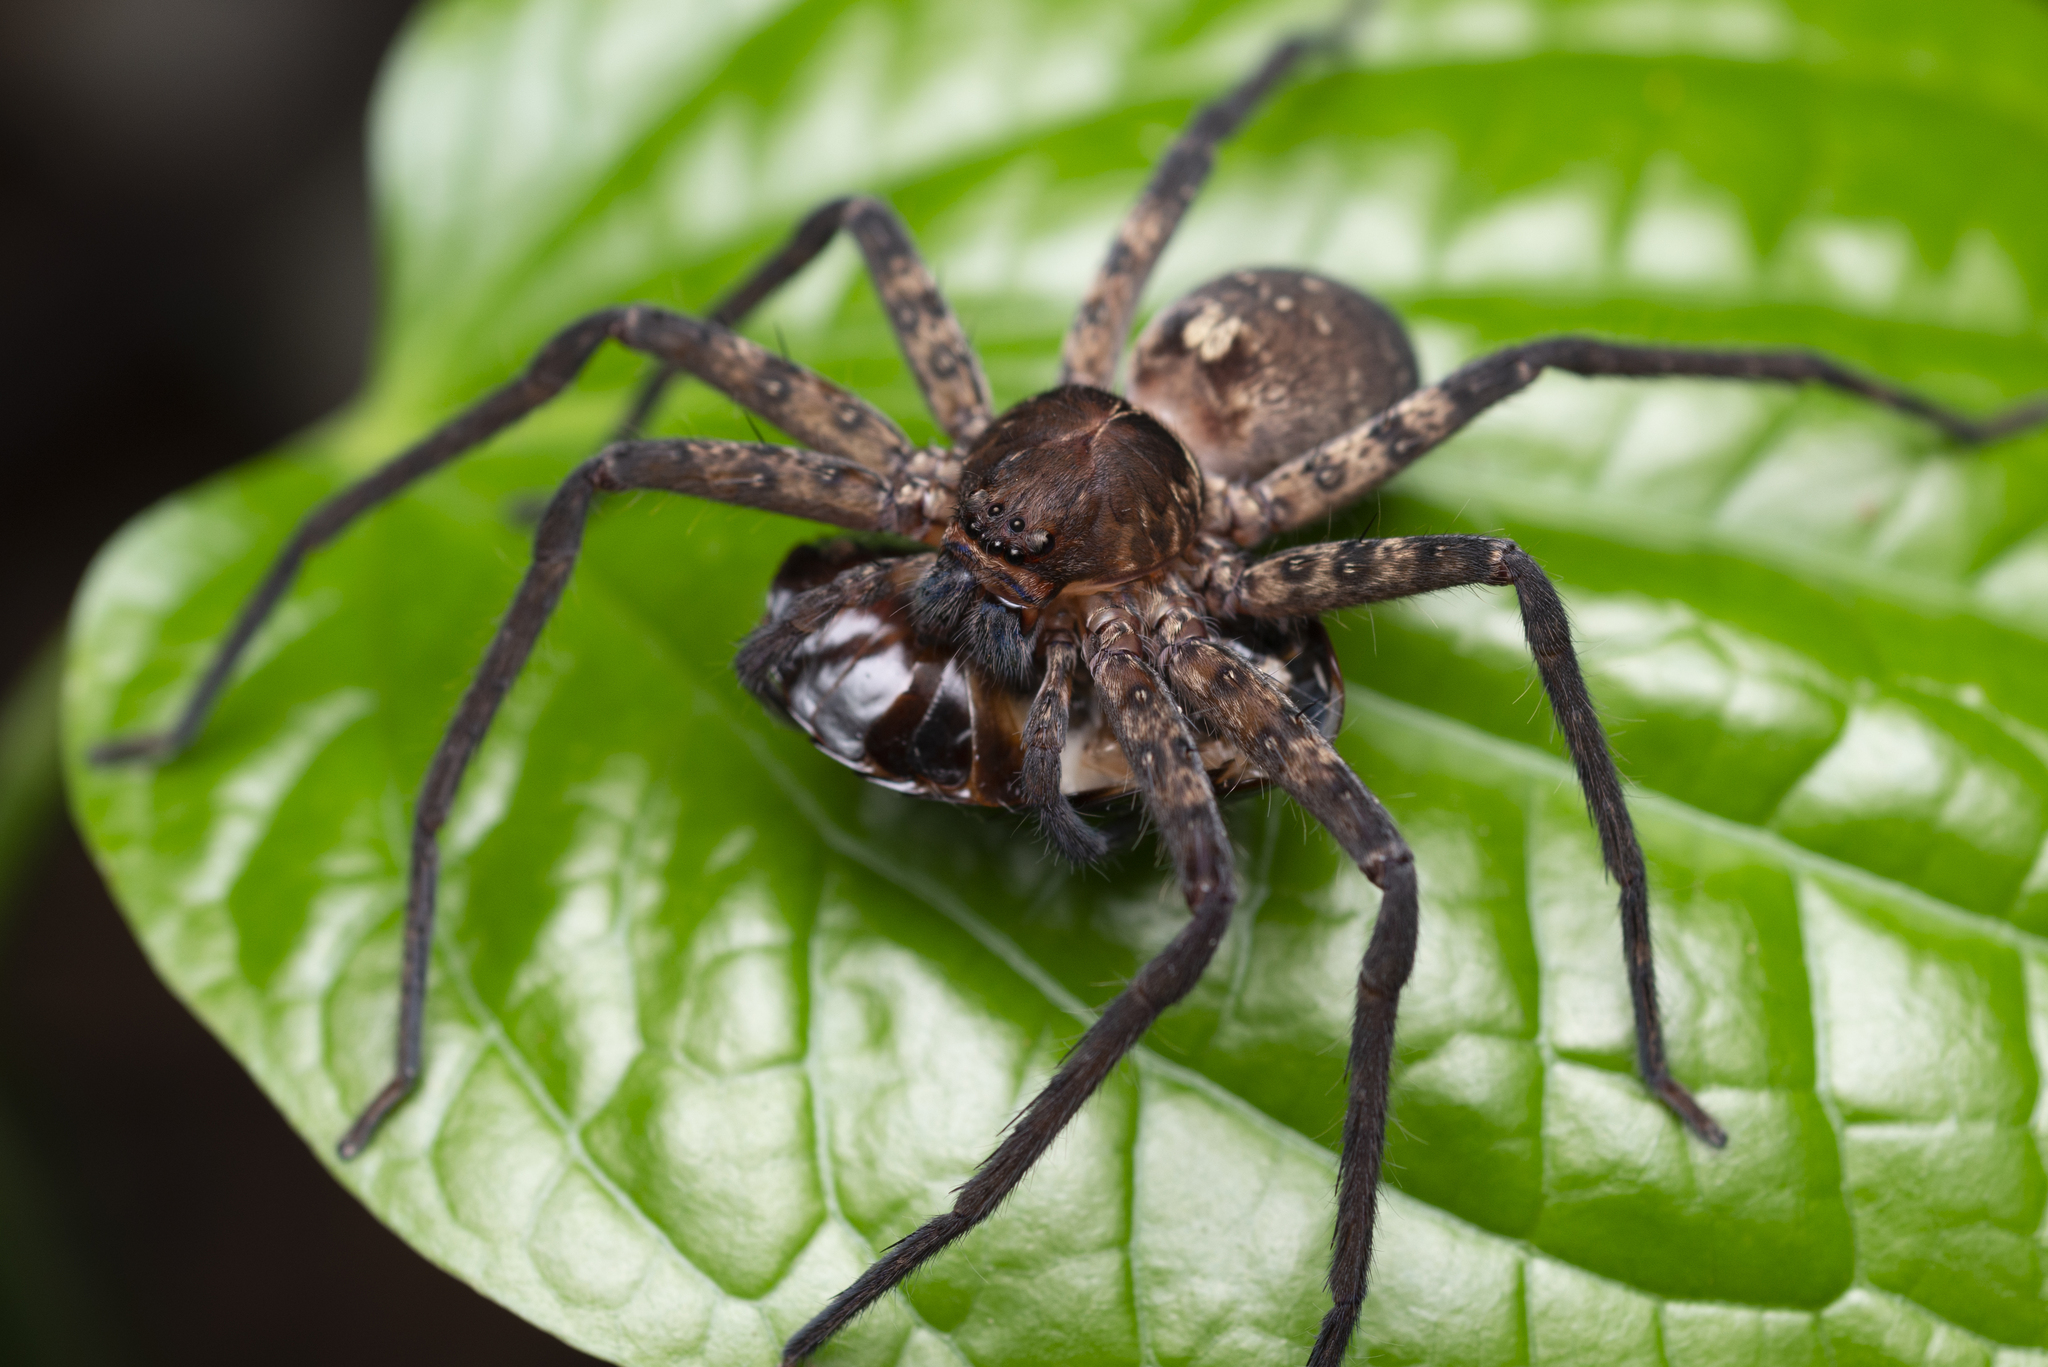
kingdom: Animalia
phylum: Arthropoda
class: Arachnida
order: Araneae
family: Sparassidae
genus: Heteropoda
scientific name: Heteropoda amphora
